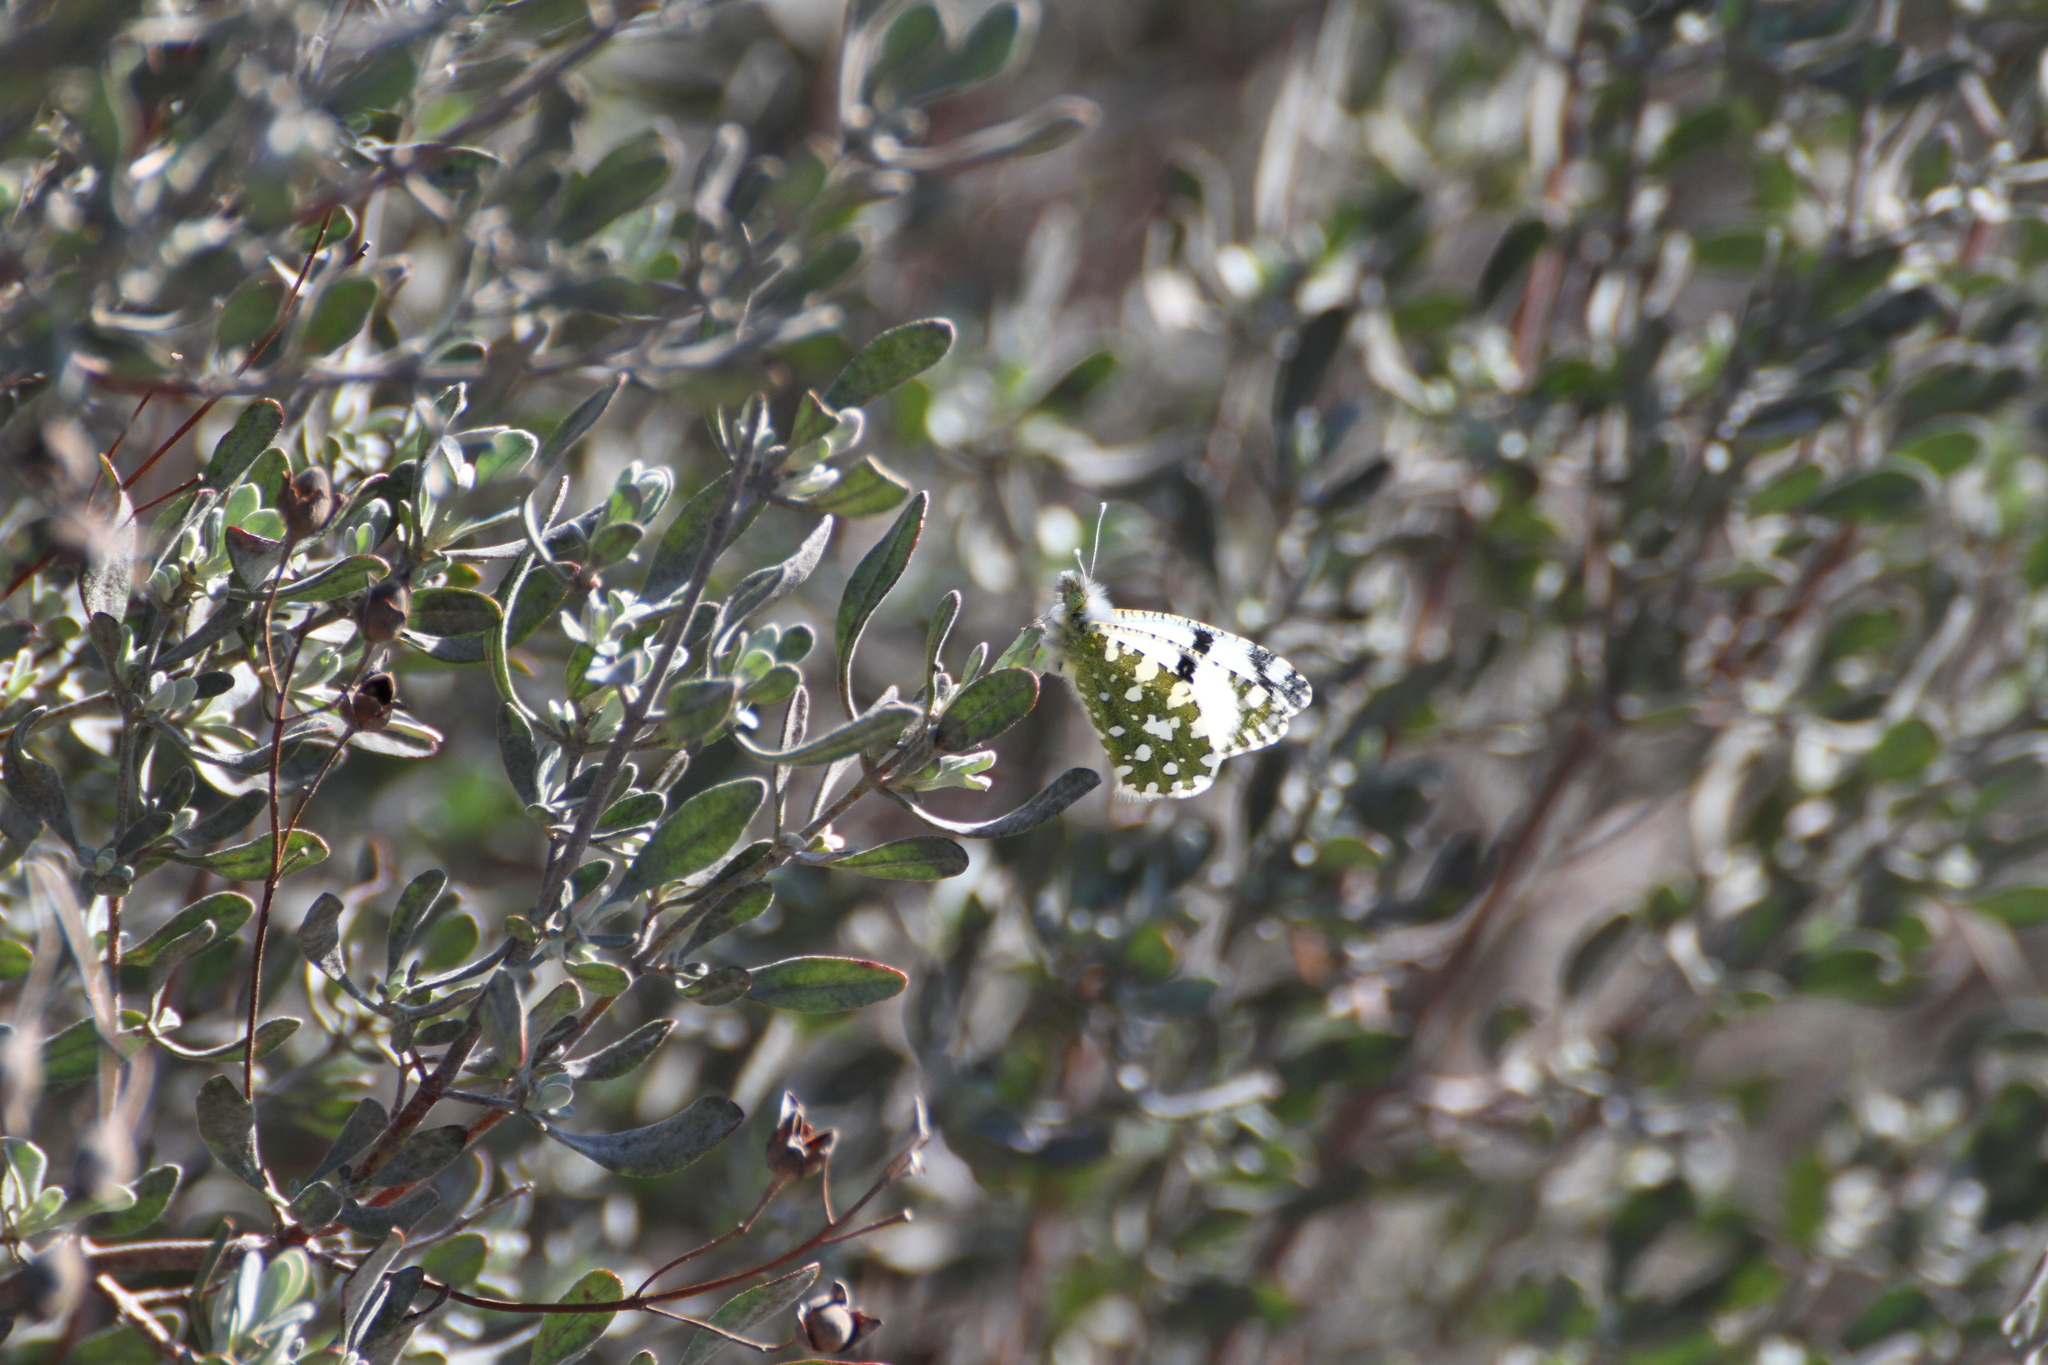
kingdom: Animalia
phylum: Arthropoda
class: Insecta
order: Lepidoptera
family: Pieridae
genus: Euchloe
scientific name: Euchloe crameri
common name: Western dappled white
